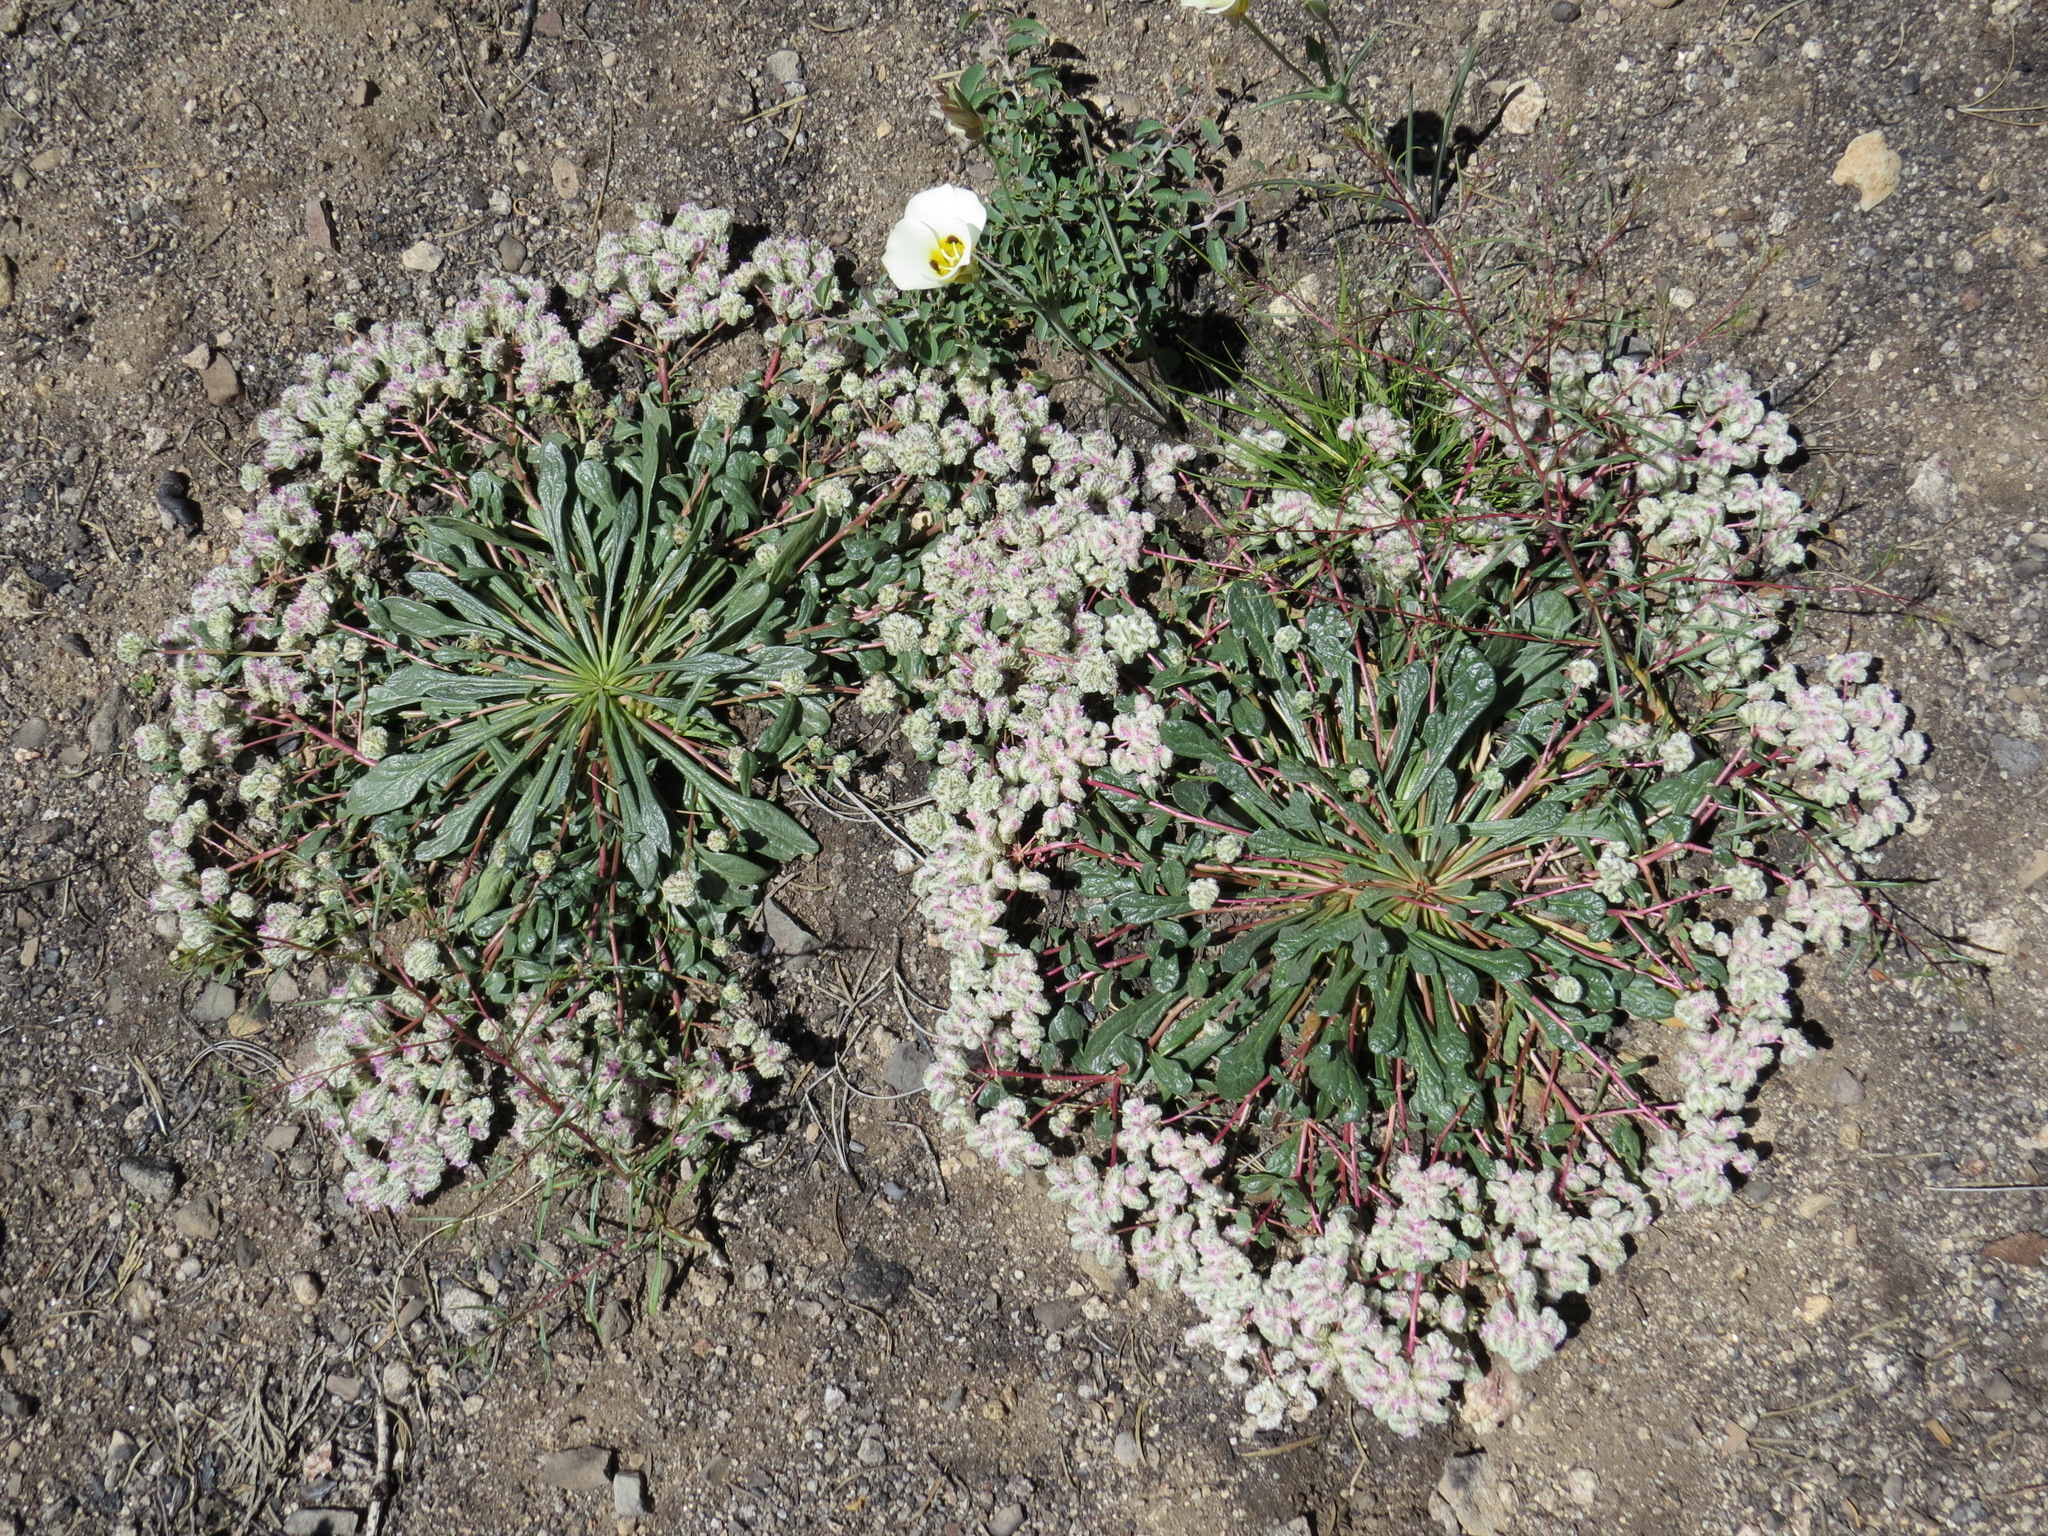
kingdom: Plantae
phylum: Tracheophyta
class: Magnoliopsida
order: Caryophyllales
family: Montiaceae
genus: Calyptridium
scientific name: Calyptridium monospermum
